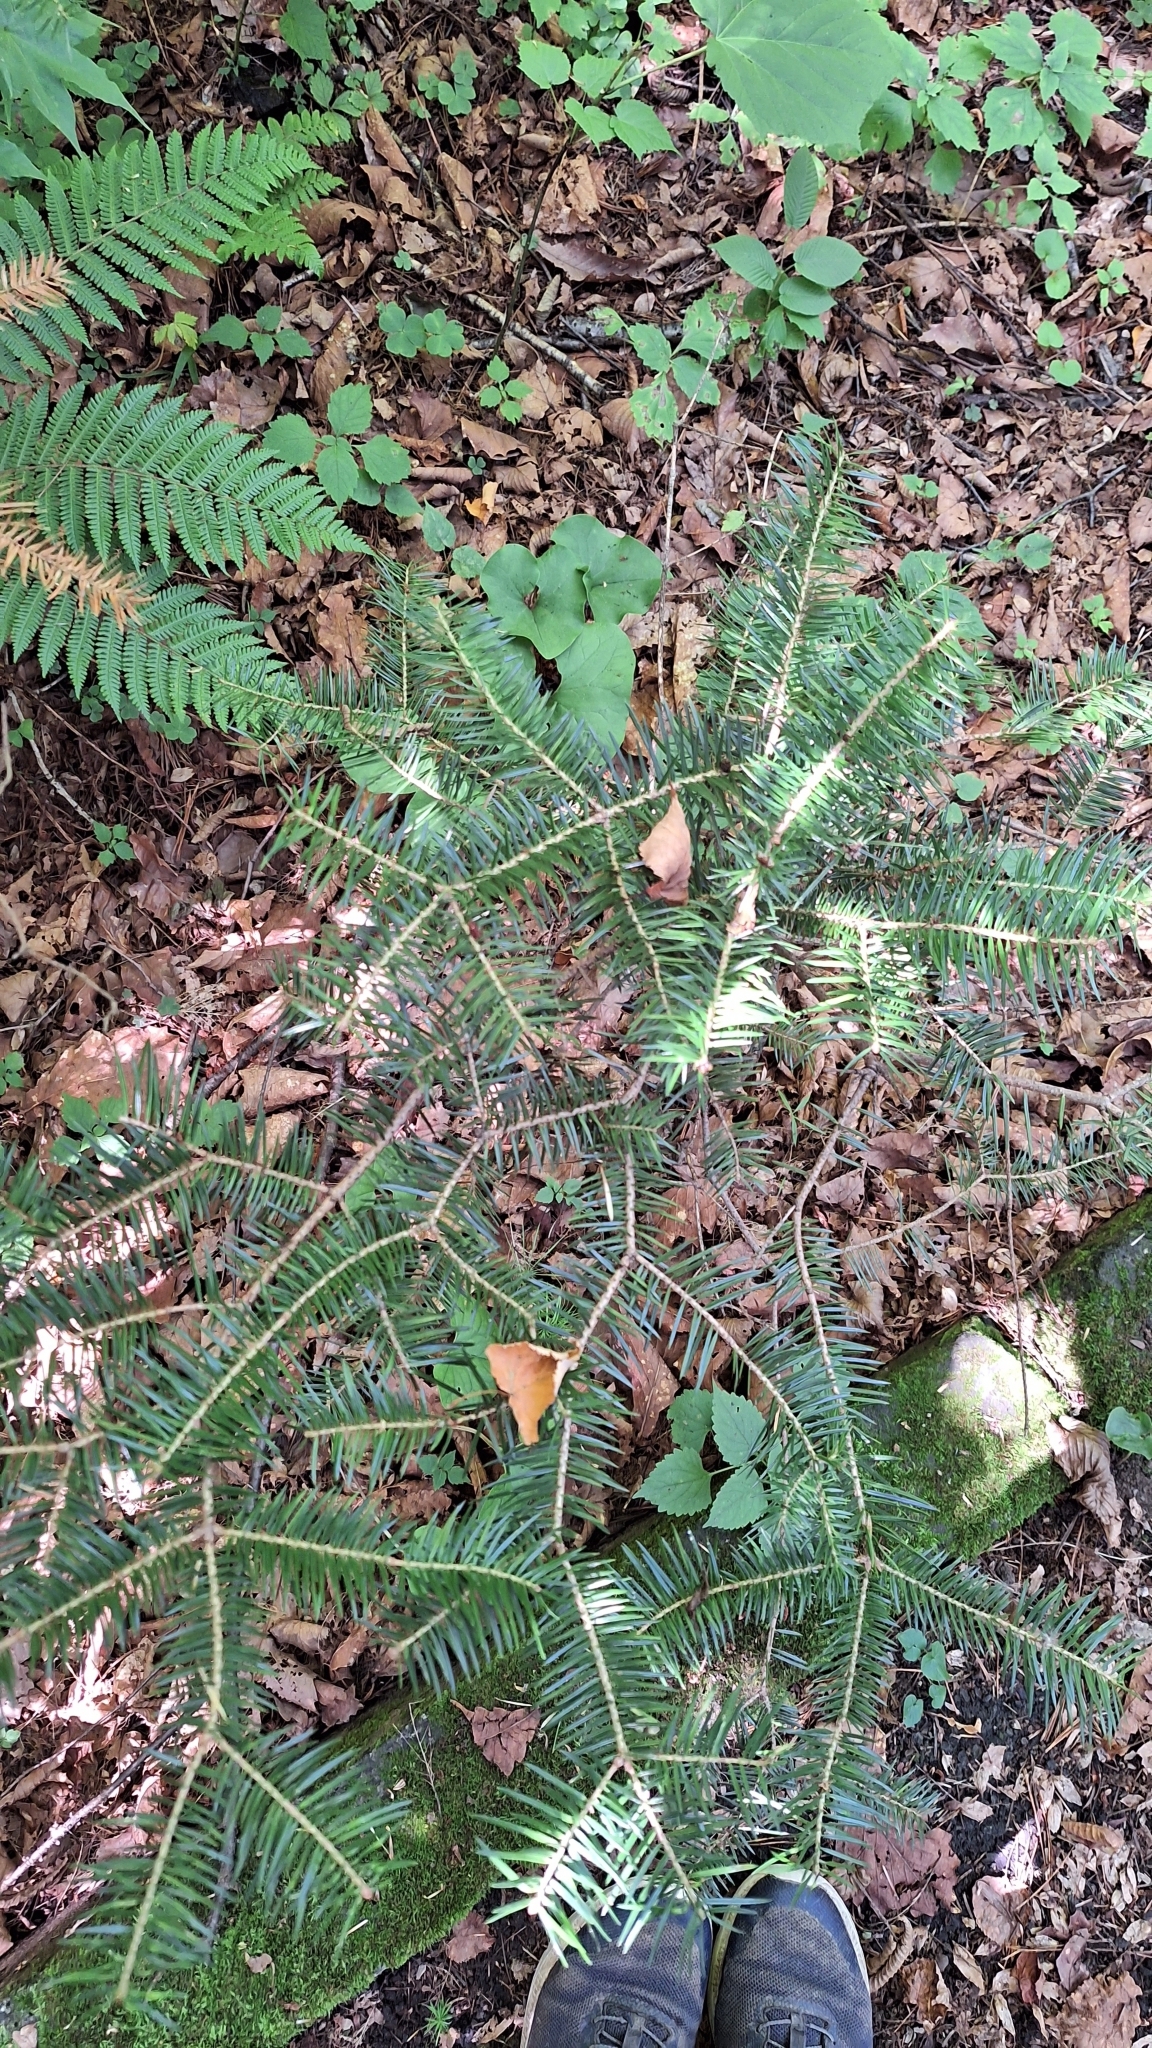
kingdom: Plantae
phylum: Tracheophyta
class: Pinopsida
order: Pinales
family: Pinaceae
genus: Abies
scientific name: Abies holophylla
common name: Manchurian fir
